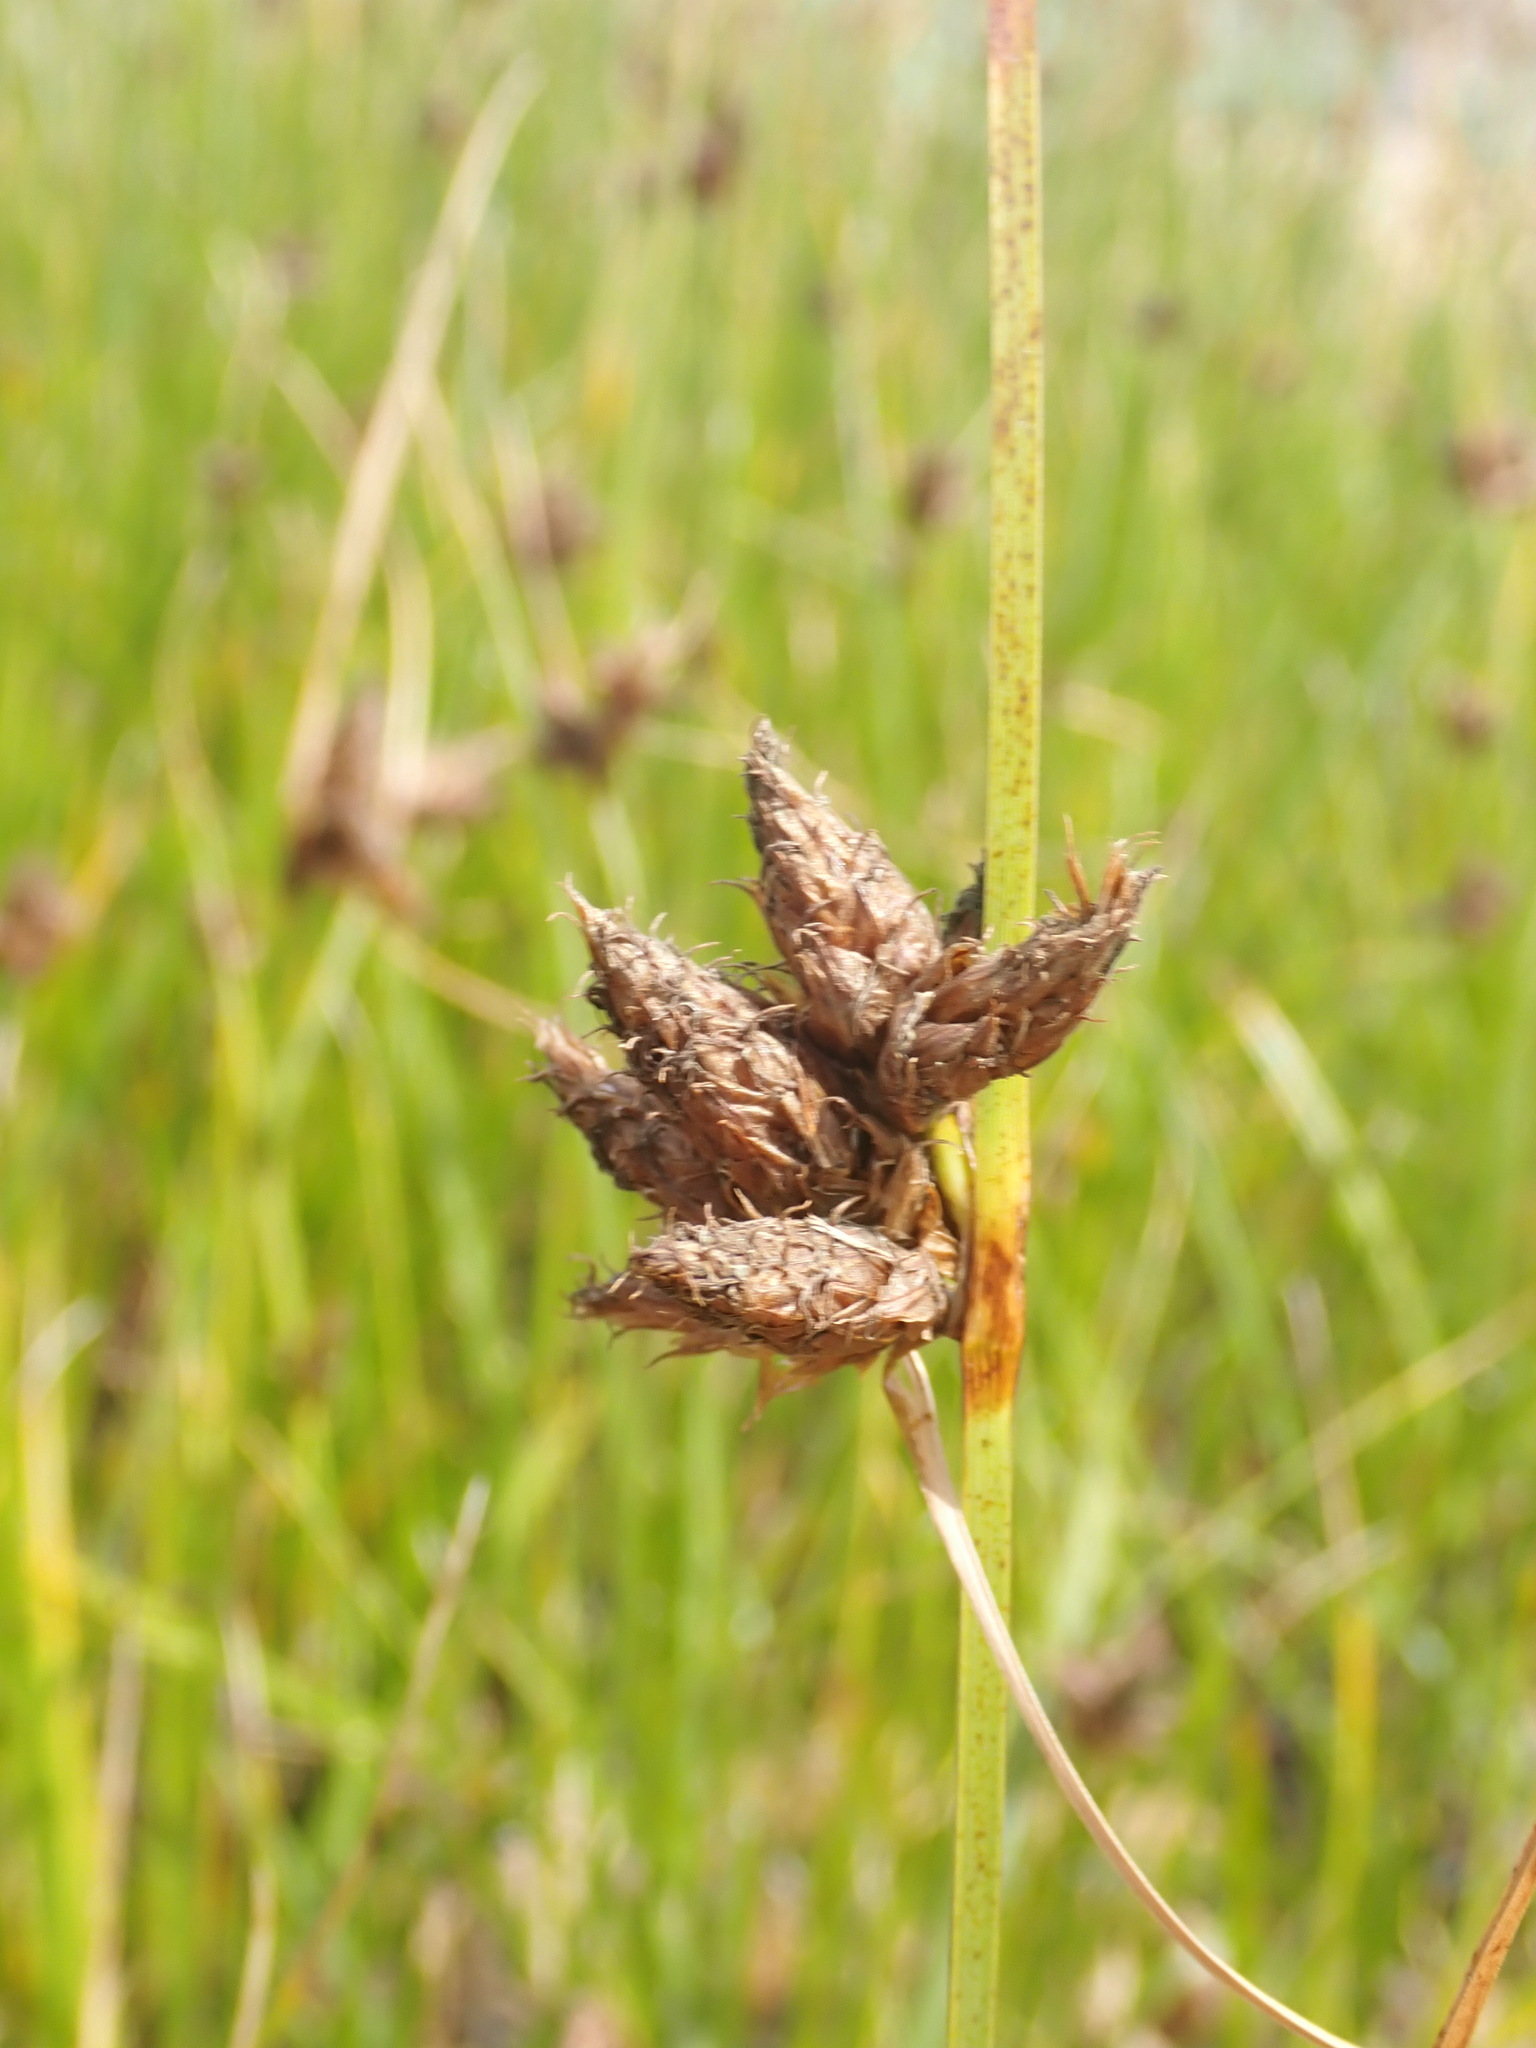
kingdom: Plantae
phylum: Tracheophyta
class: Liliopsida
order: Poales
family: Cyperaceae
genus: Bolboschoenus
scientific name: Bolboschoenus maritimus
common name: Sea club-rush
